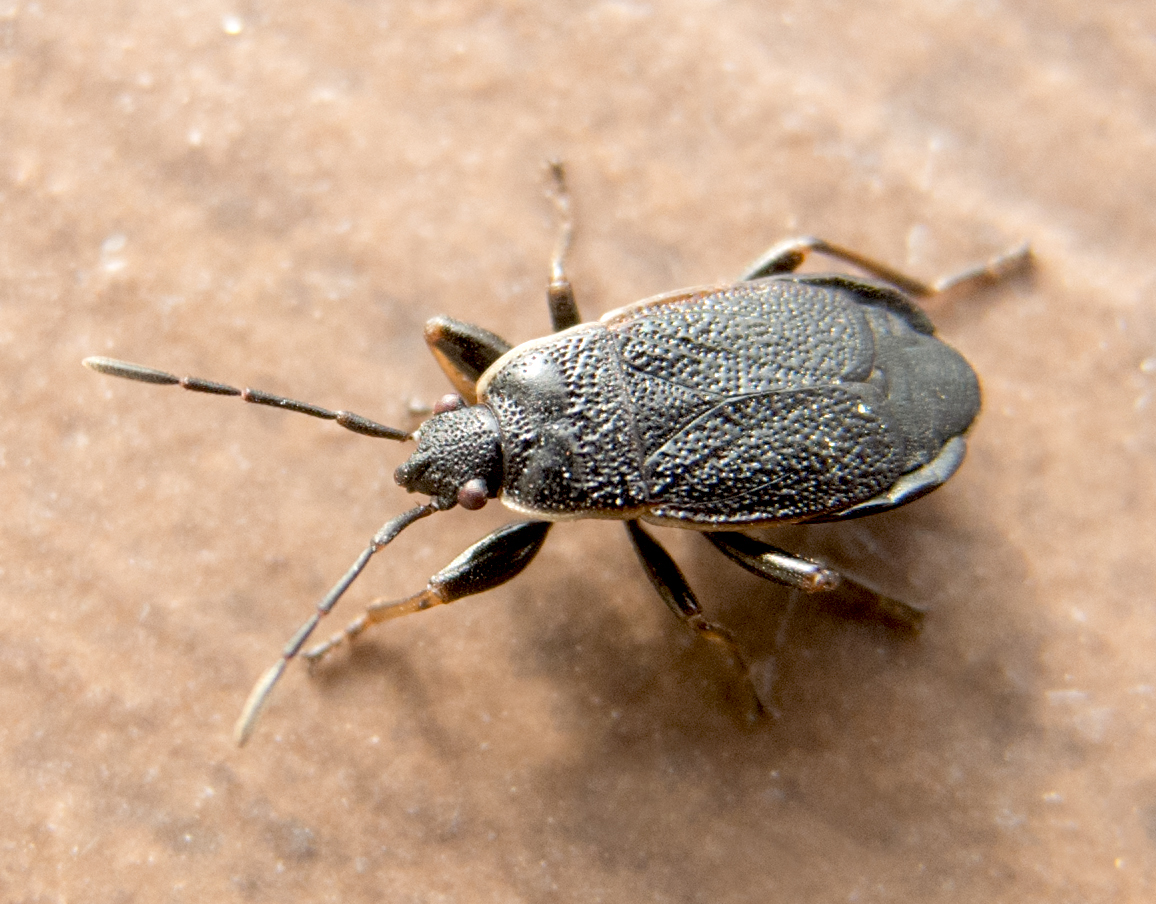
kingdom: Animalia
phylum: Arthropoda
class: Insecta
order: Hemiptera
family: Pyrrhocoridae
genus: Pyrrhocoris
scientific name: Pyrrhocoris marginatus
